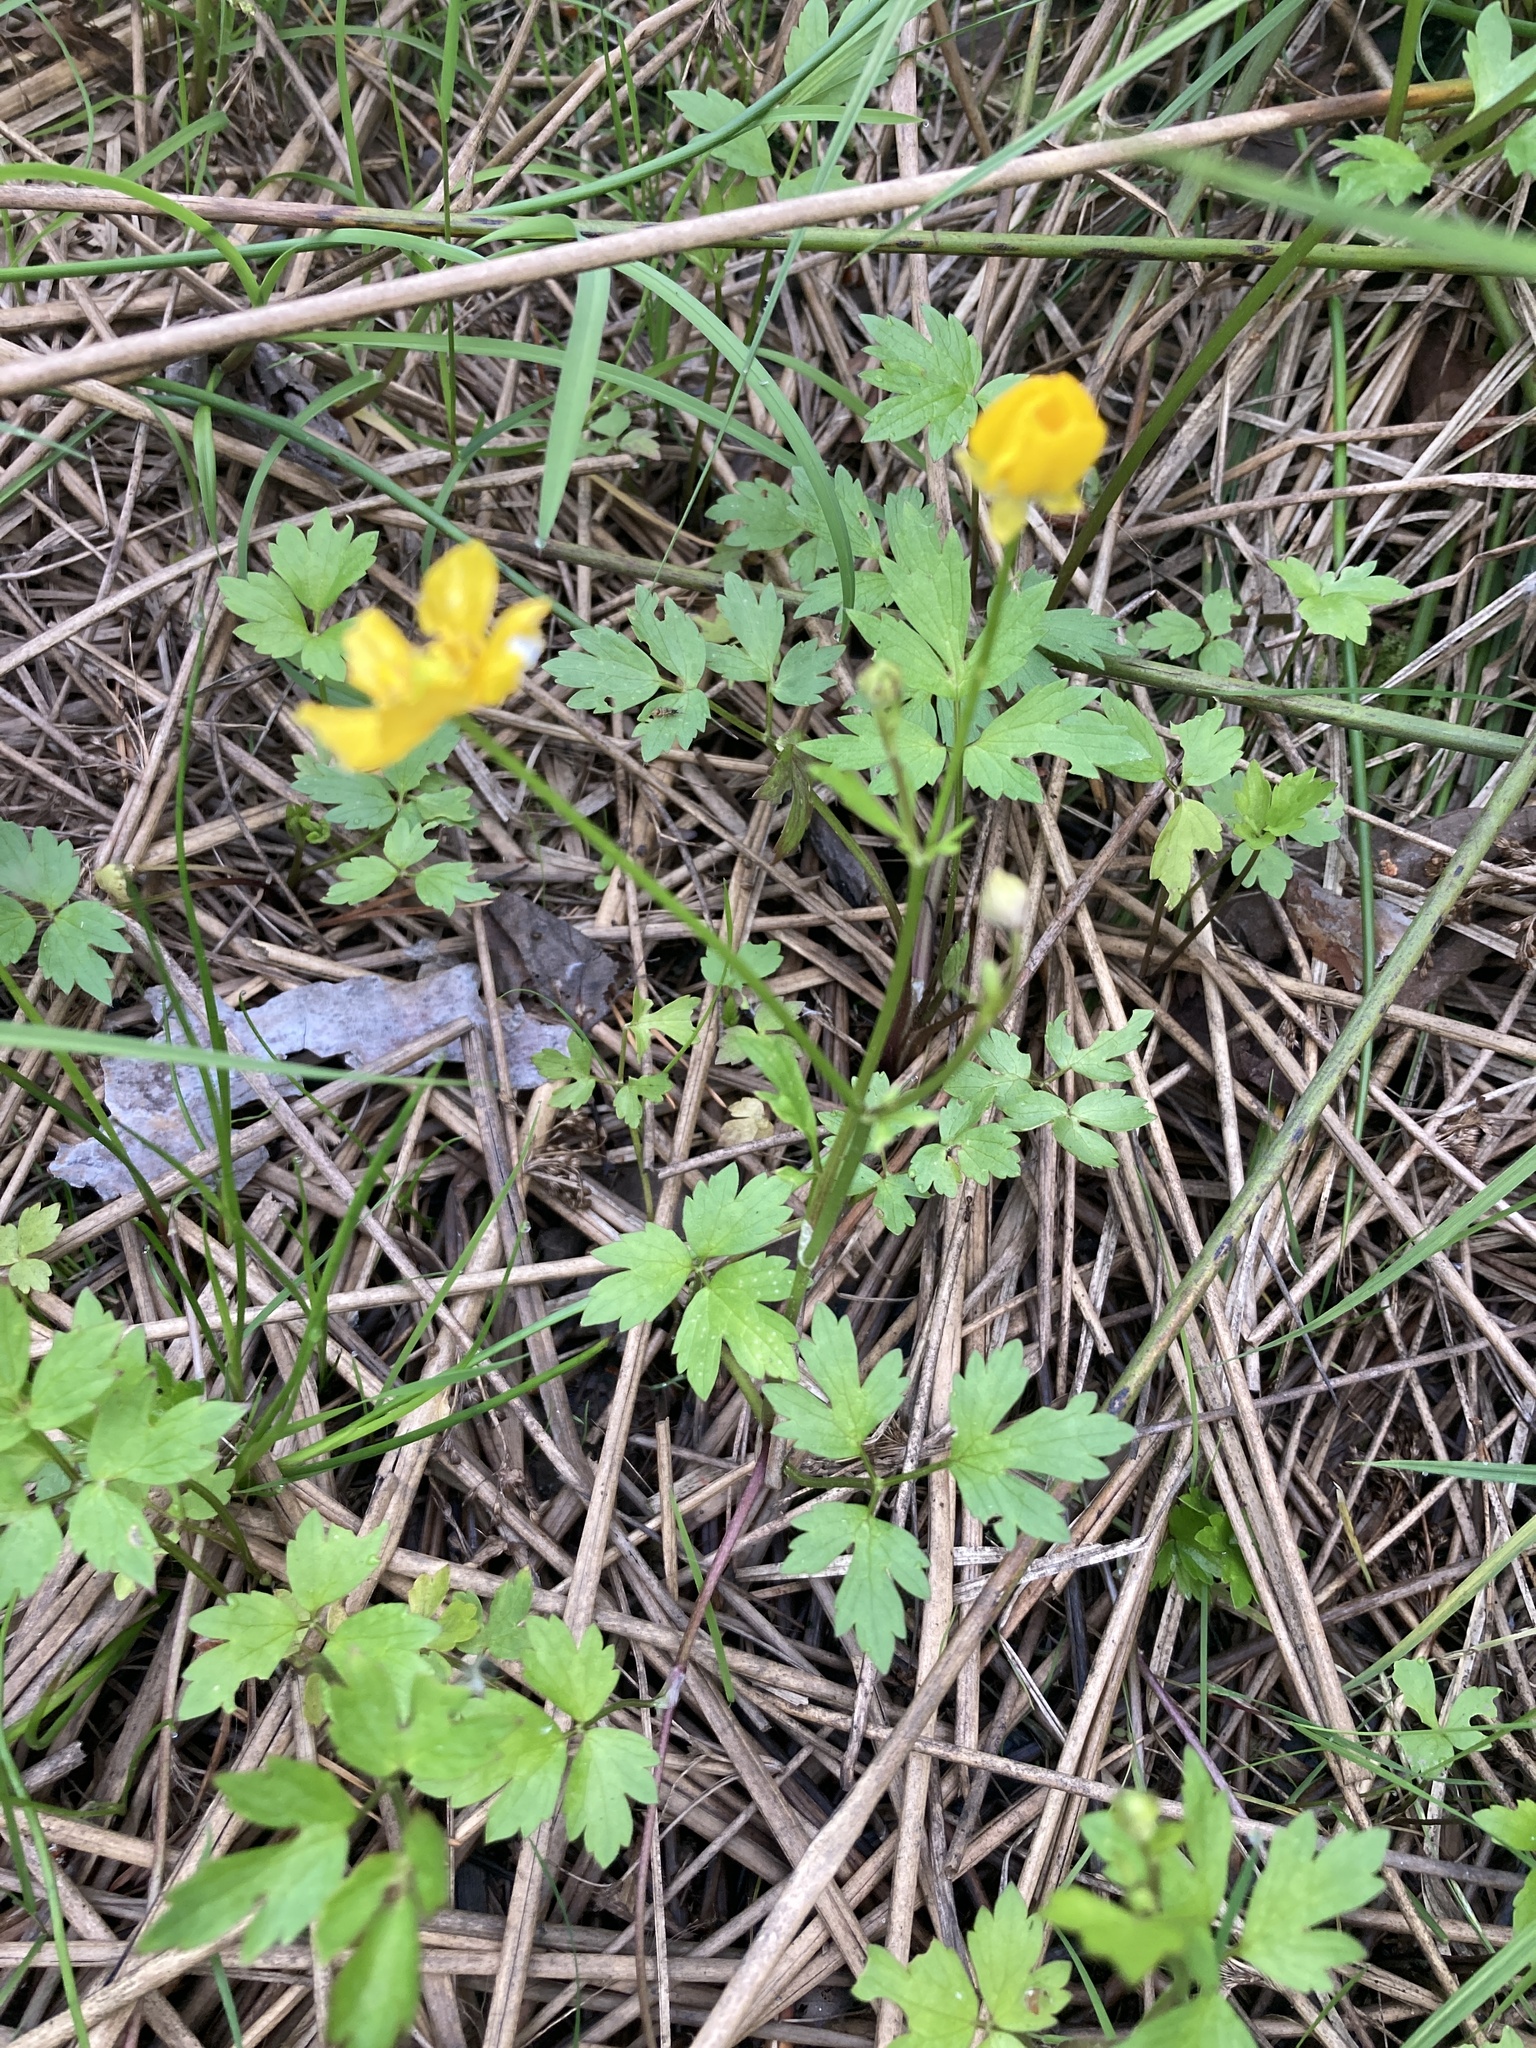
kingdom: Plantae
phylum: Tracheophyta
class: Magnoliopsida
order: Ranunculales
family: Ranunculaceae
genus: Ranunculus
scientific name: Ranunculus repens
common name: Creeping buttercup
